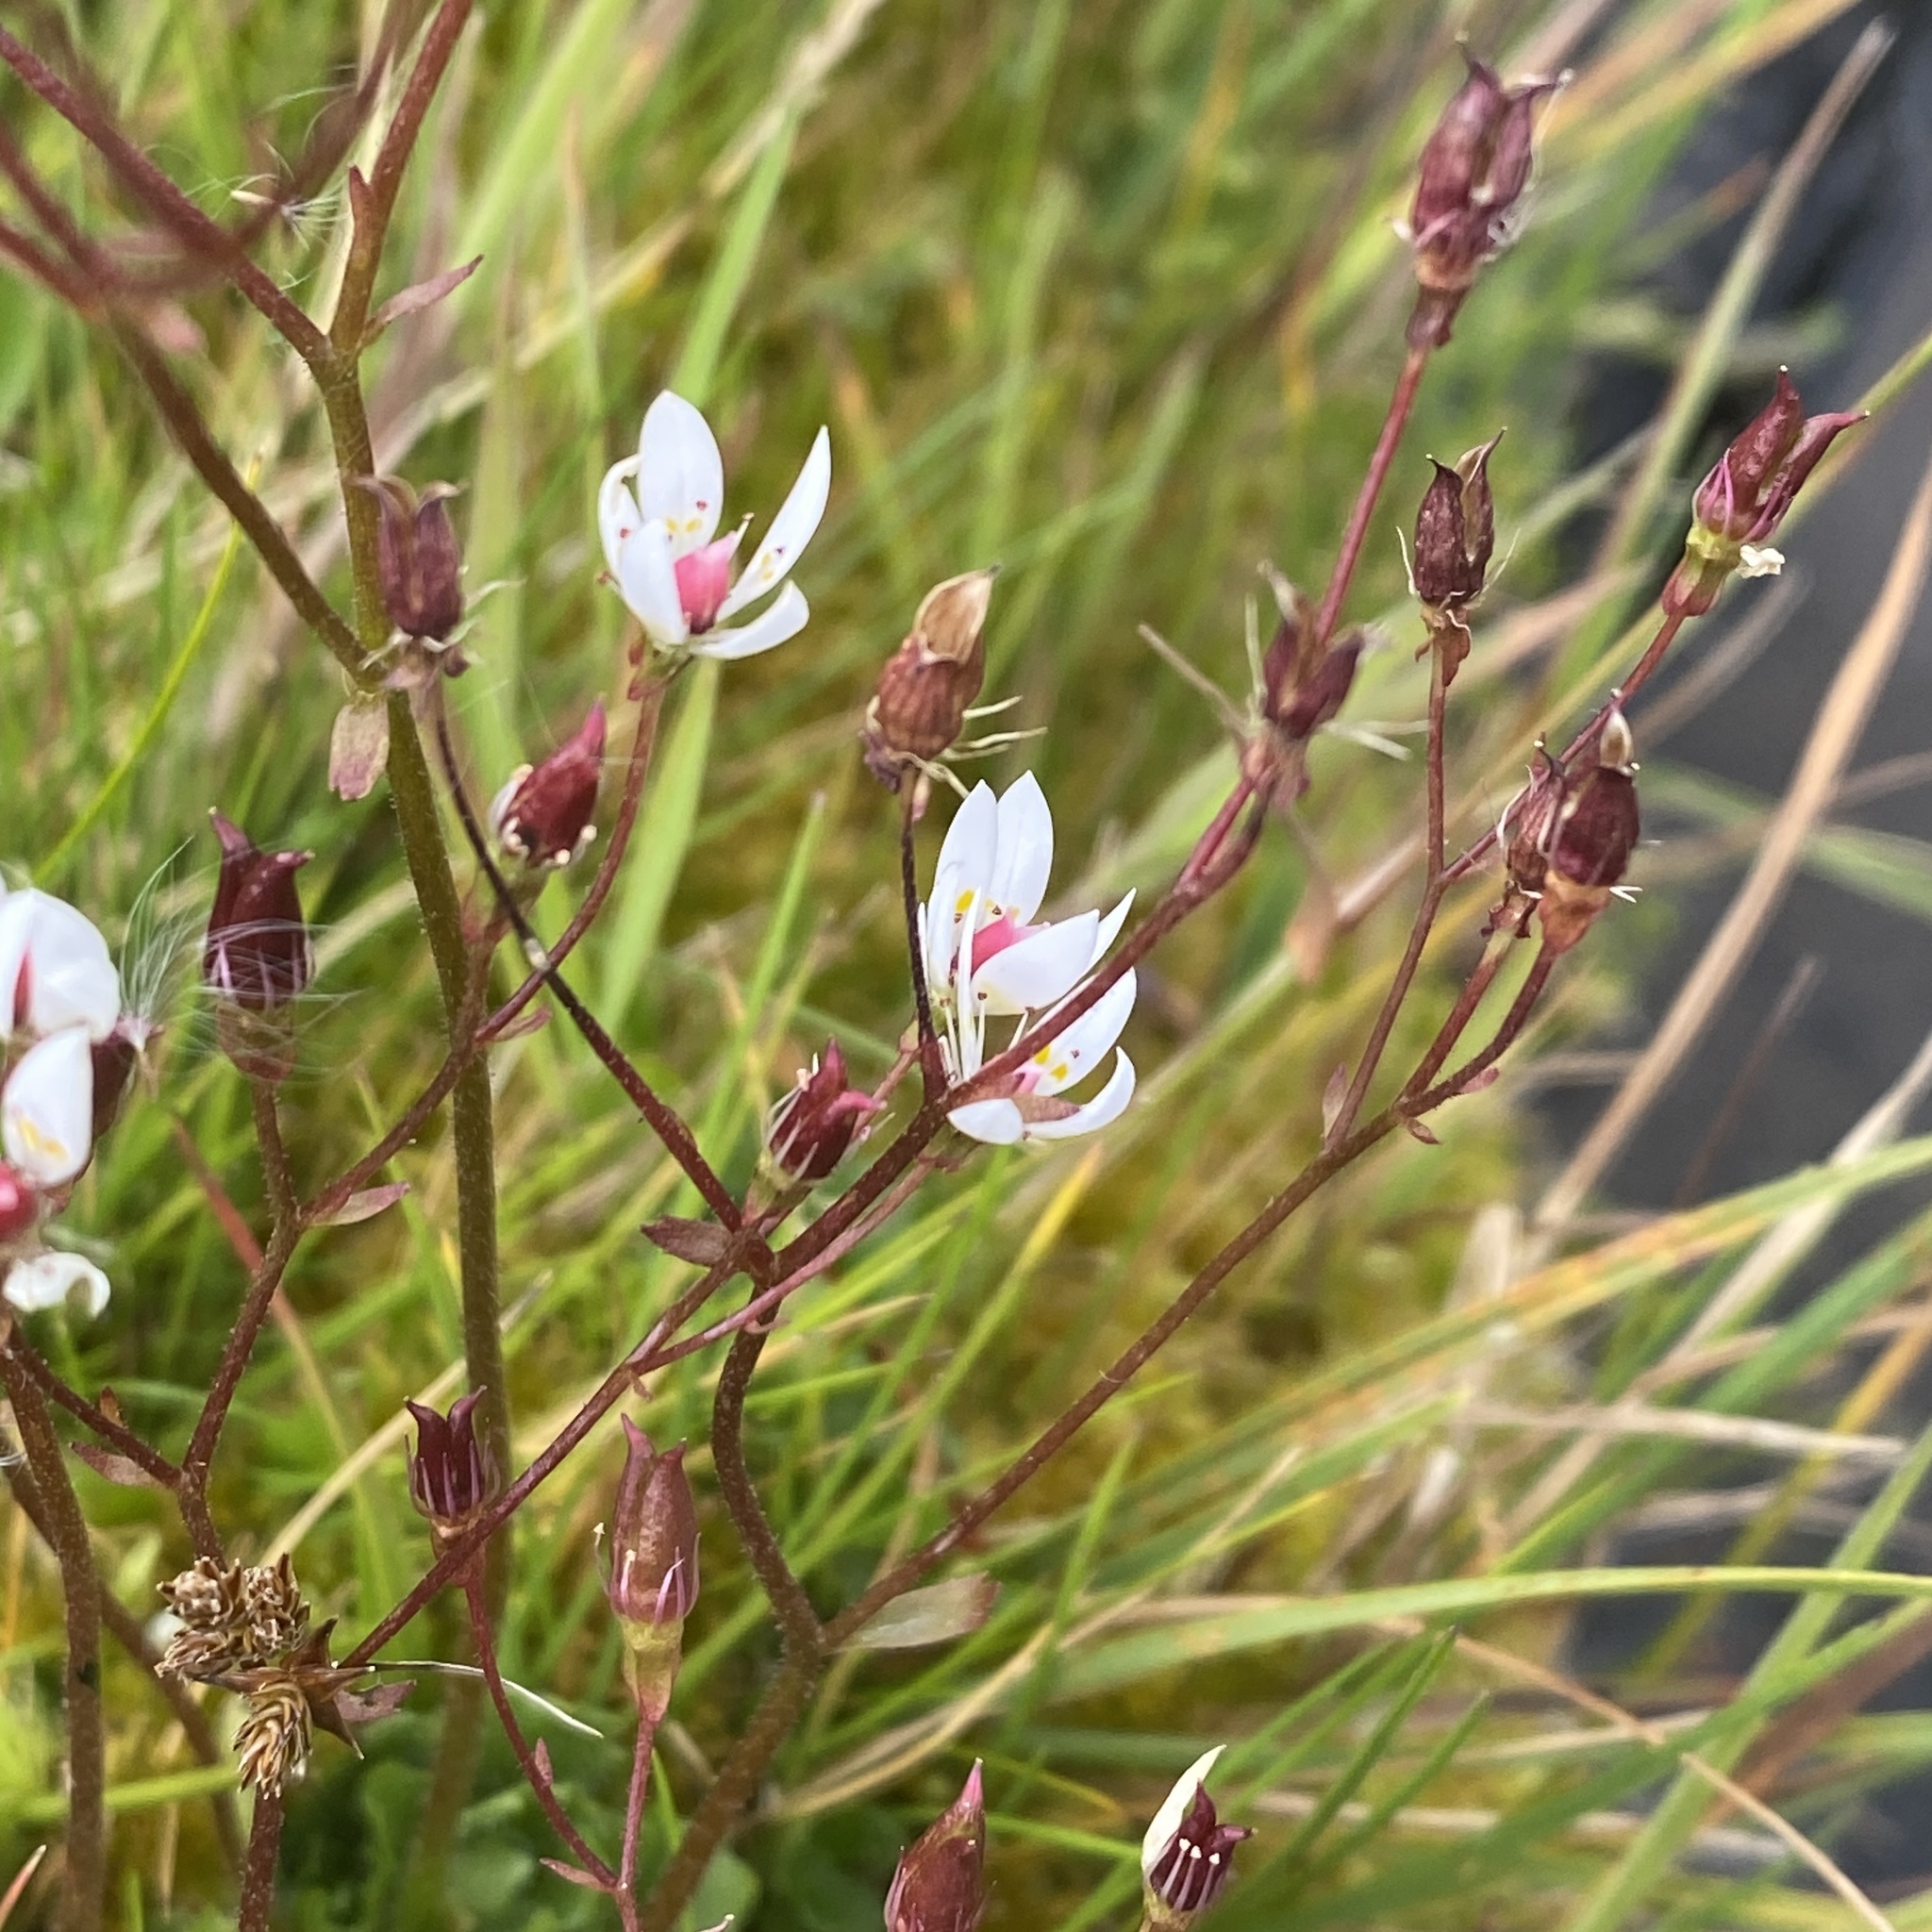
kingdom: Plantae
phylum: Tracheophyta
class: Magnoliopsida
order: Saxifragales
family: Saxifragaceae
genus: Micranthes
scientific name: Micranthes stellaris
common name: Starry saxifrage
